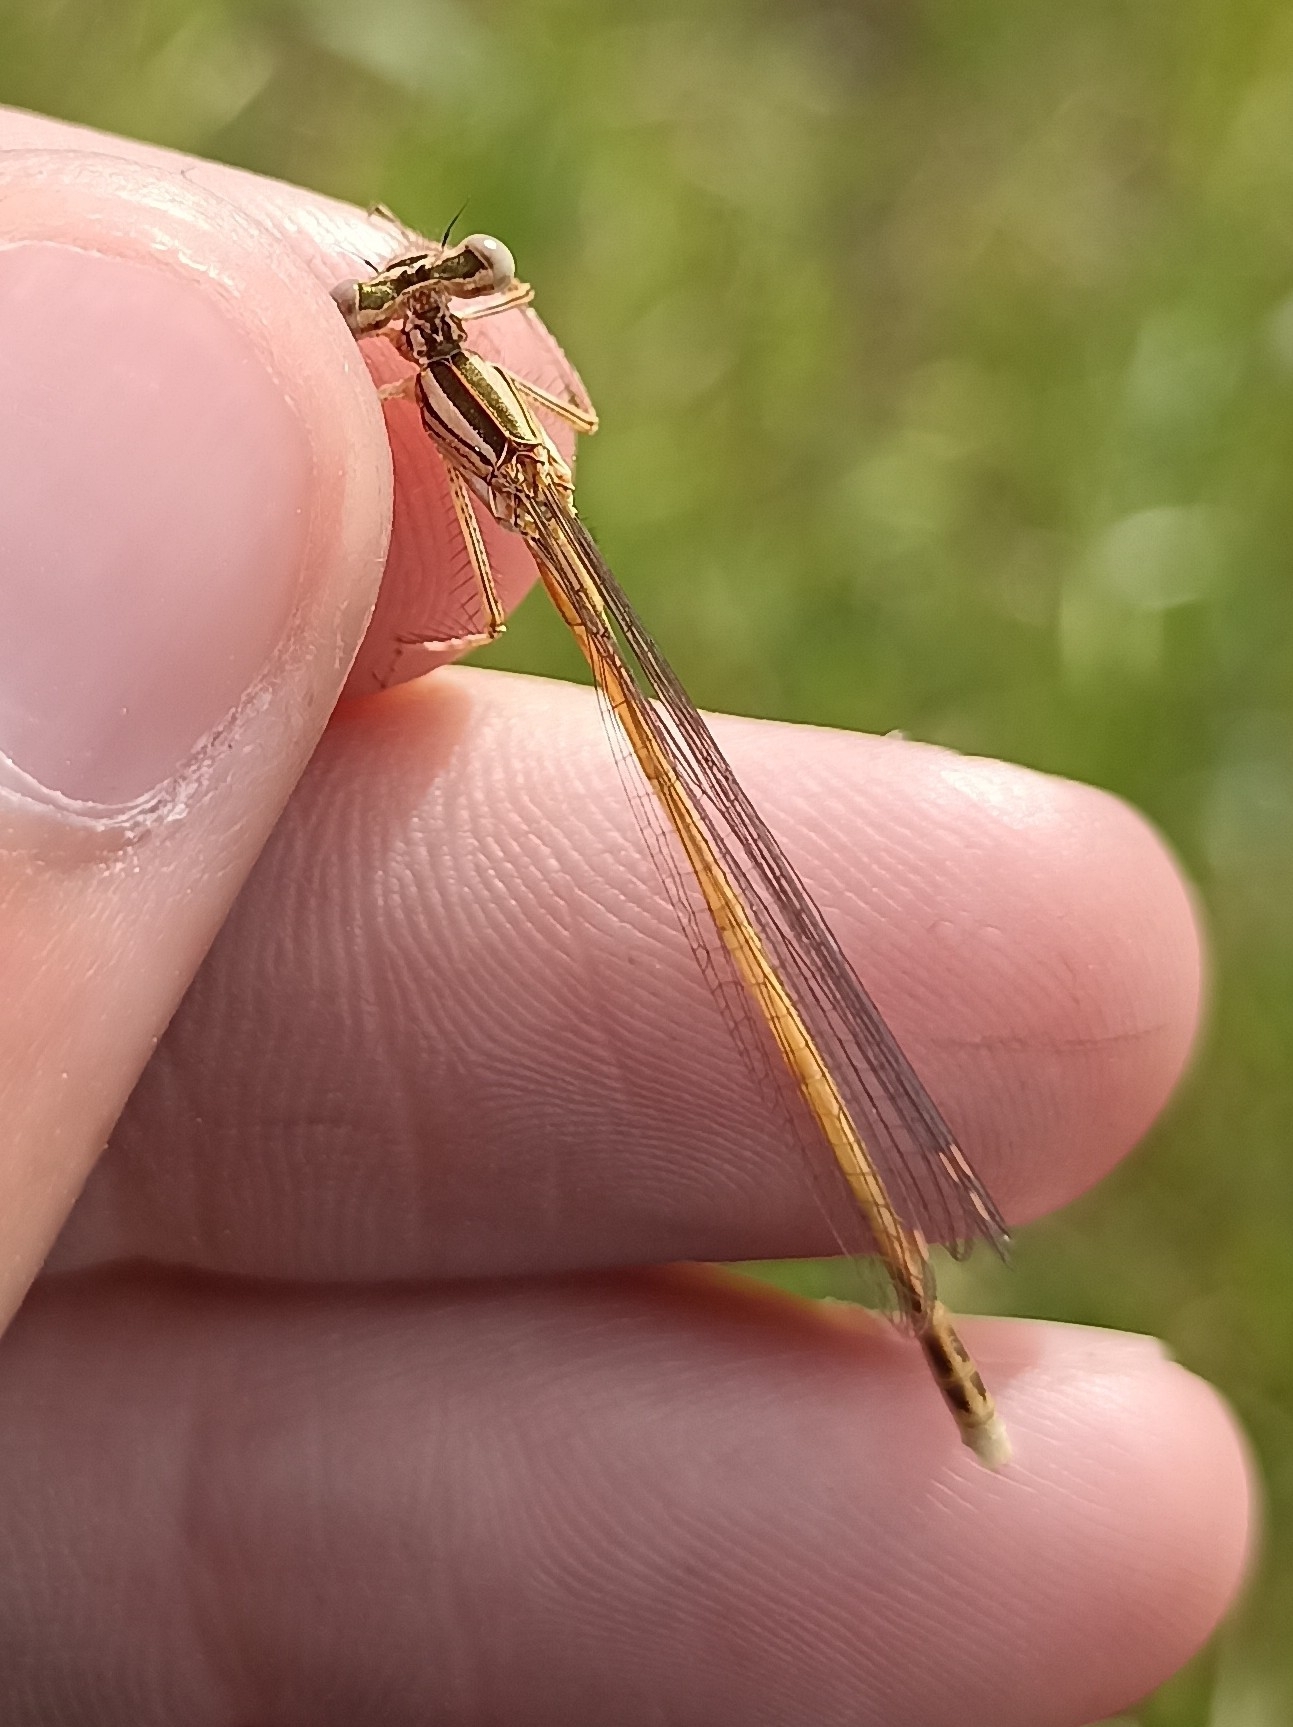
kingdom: Animalia
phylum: Arthropoda
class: Insecta
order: Odonata
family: Platycnemididae
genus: Platycnemis
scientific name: Platycnemis acutipennis
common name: Orange featherleg
